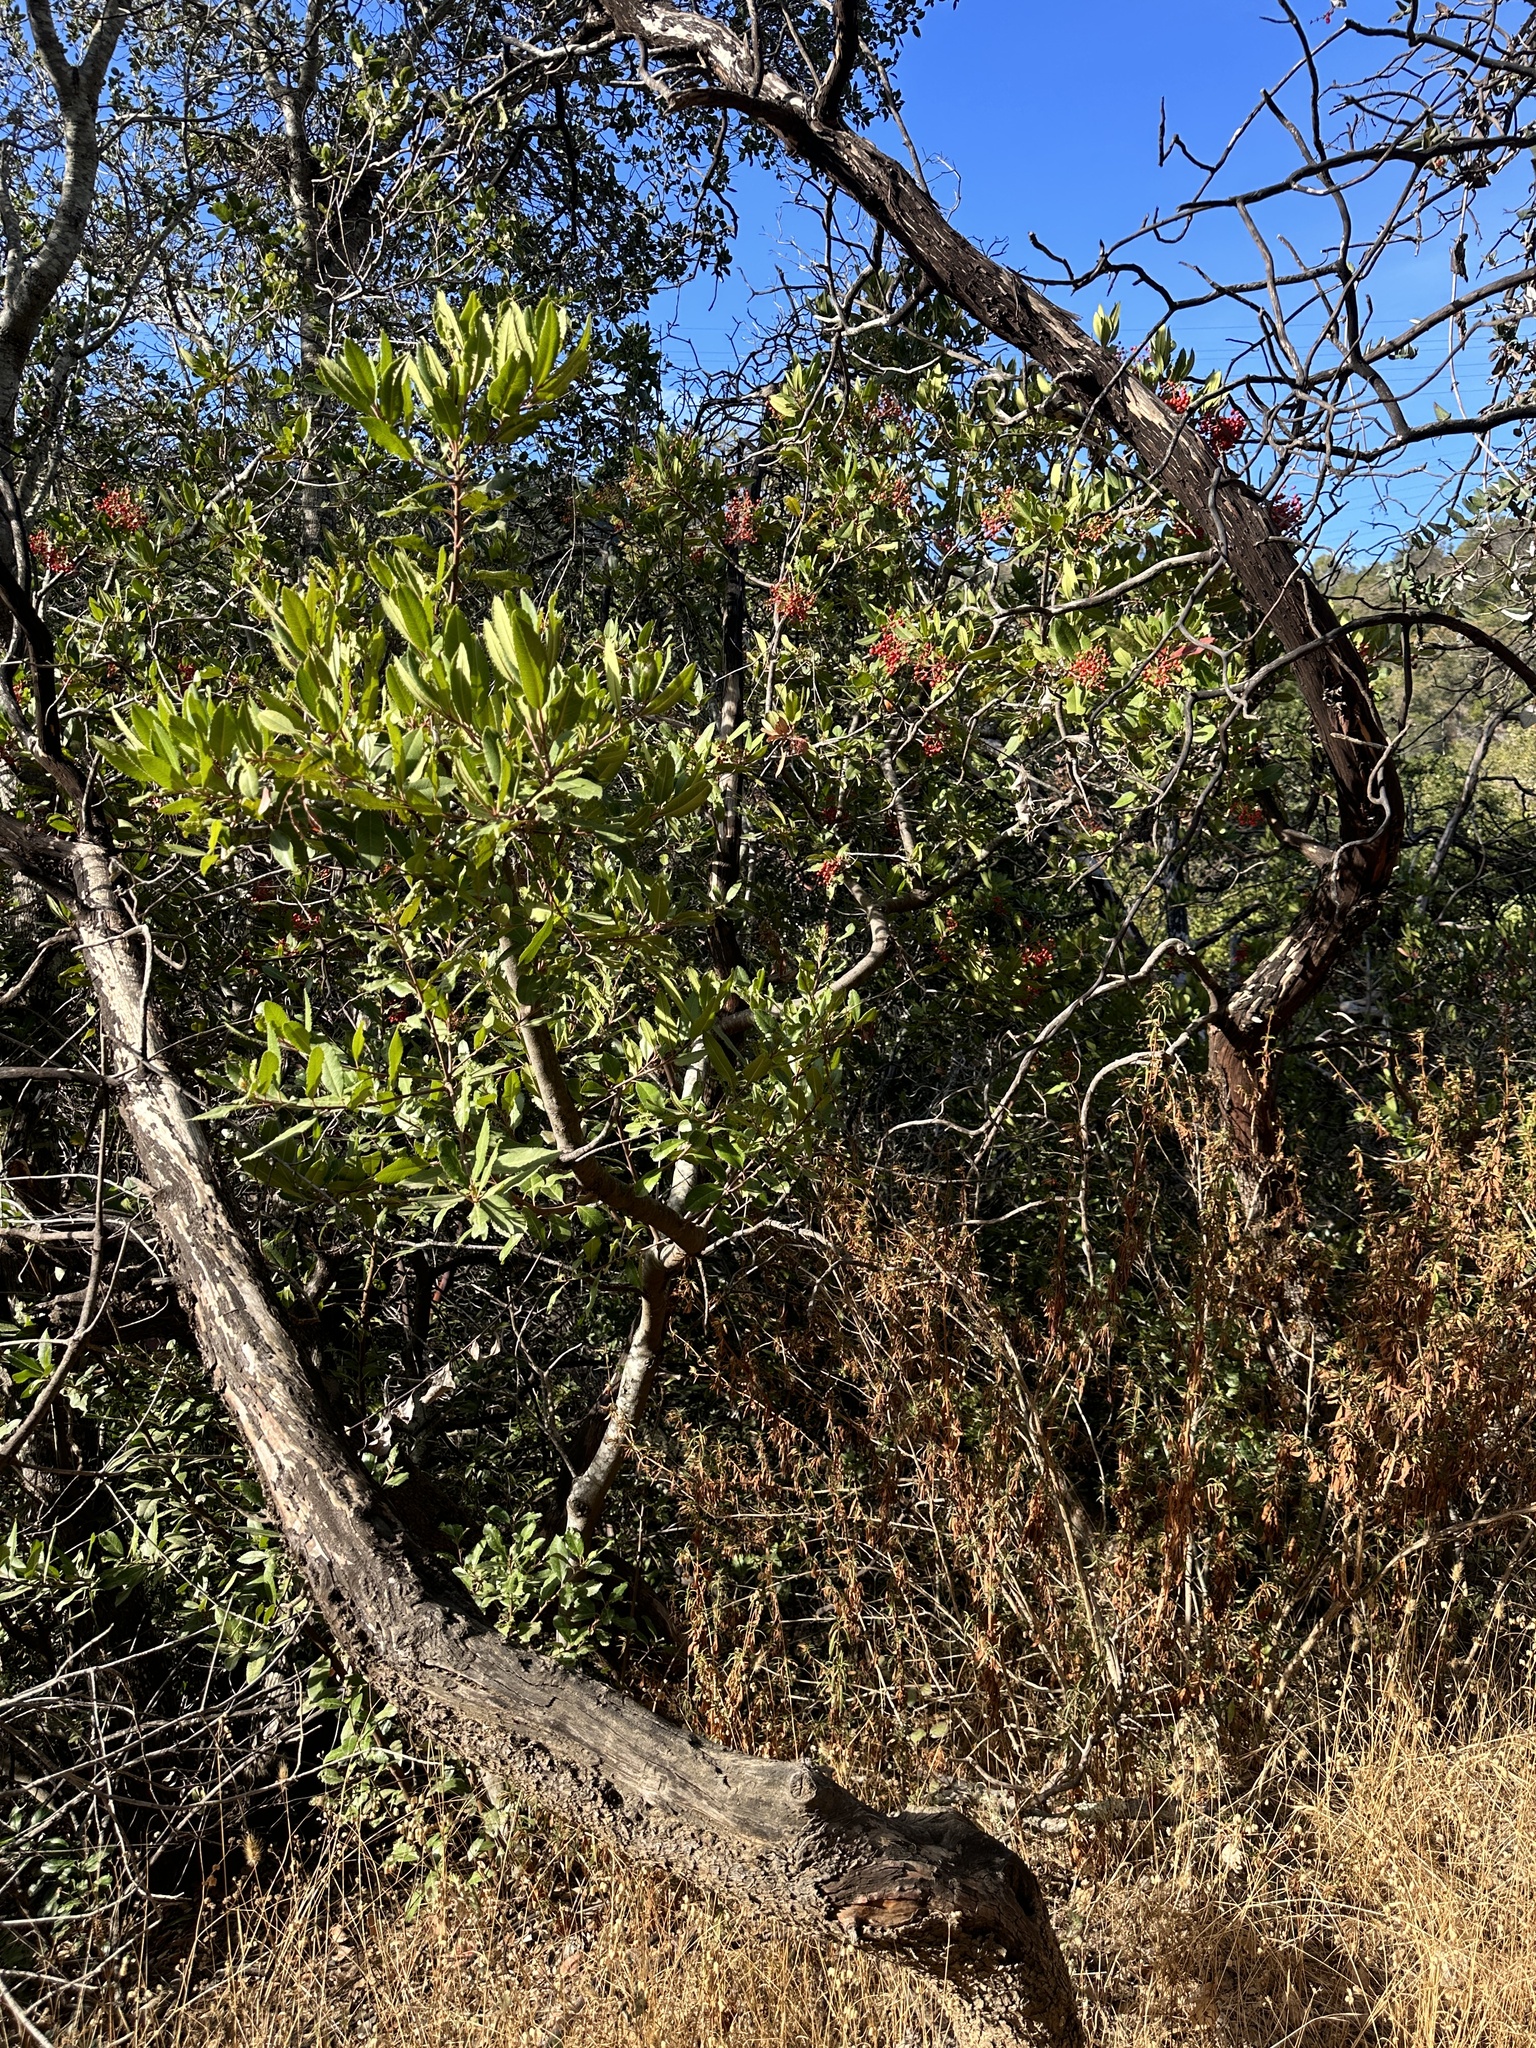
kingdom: Plantae
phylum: Tracheophyta
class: Magnoliopsida
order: Rosales
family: Rosaceae
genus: Heteromeles
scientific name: Heteromeles arbutifolia
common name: California-holly
